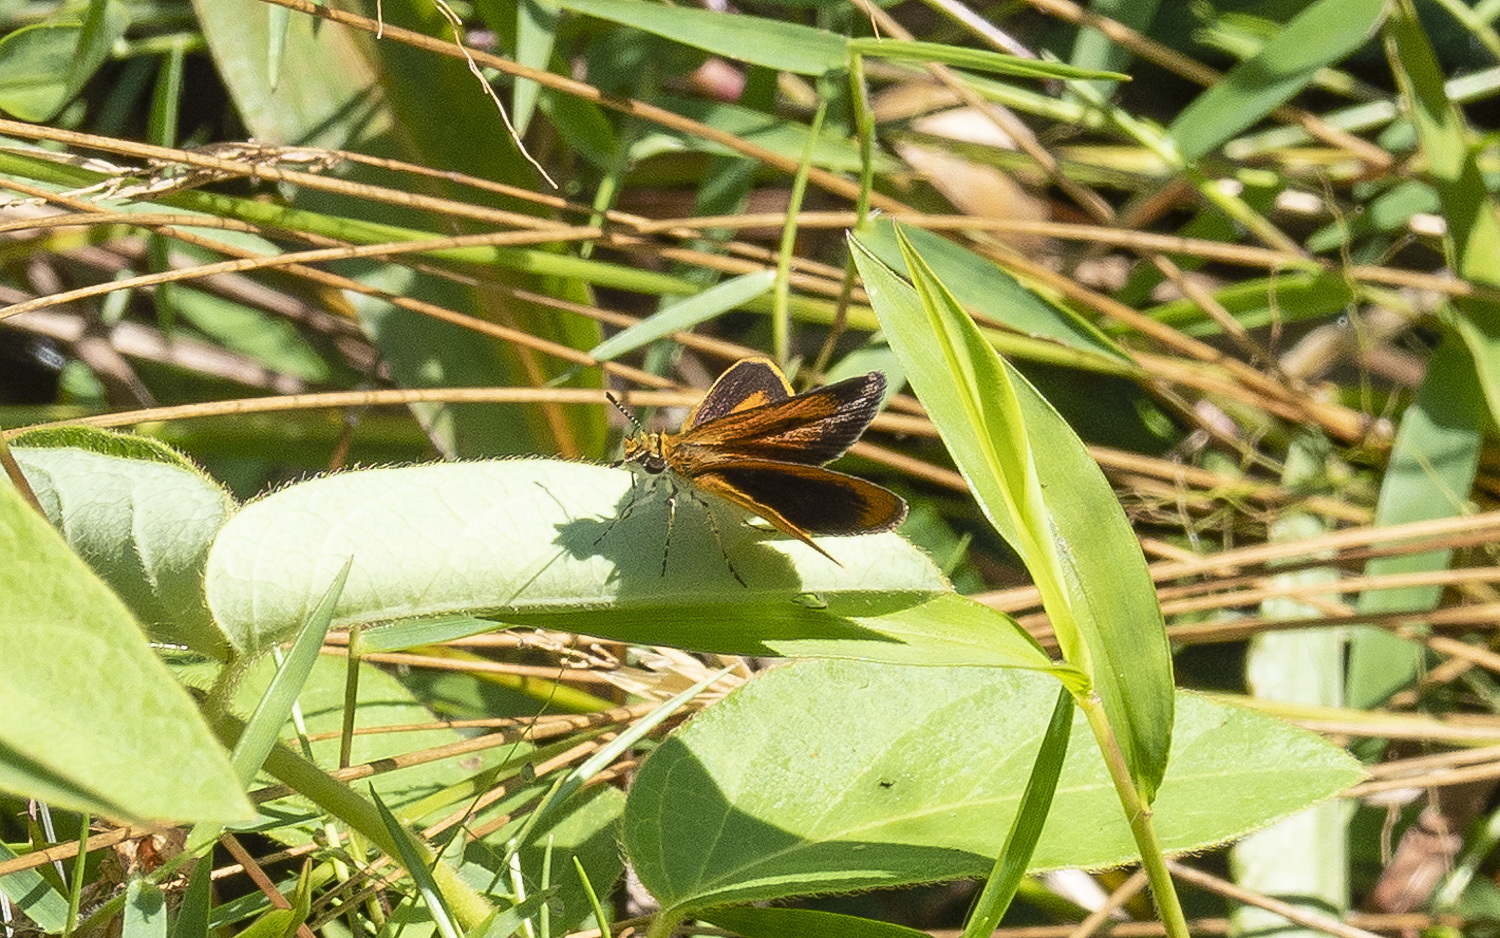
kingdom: Animalia
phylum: Arthropoda
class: Insecta
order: Lepidoptera
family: Hesperiidae
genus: Ancyloxypha
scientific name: Ancyloxypha numitor
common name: Least skipper
